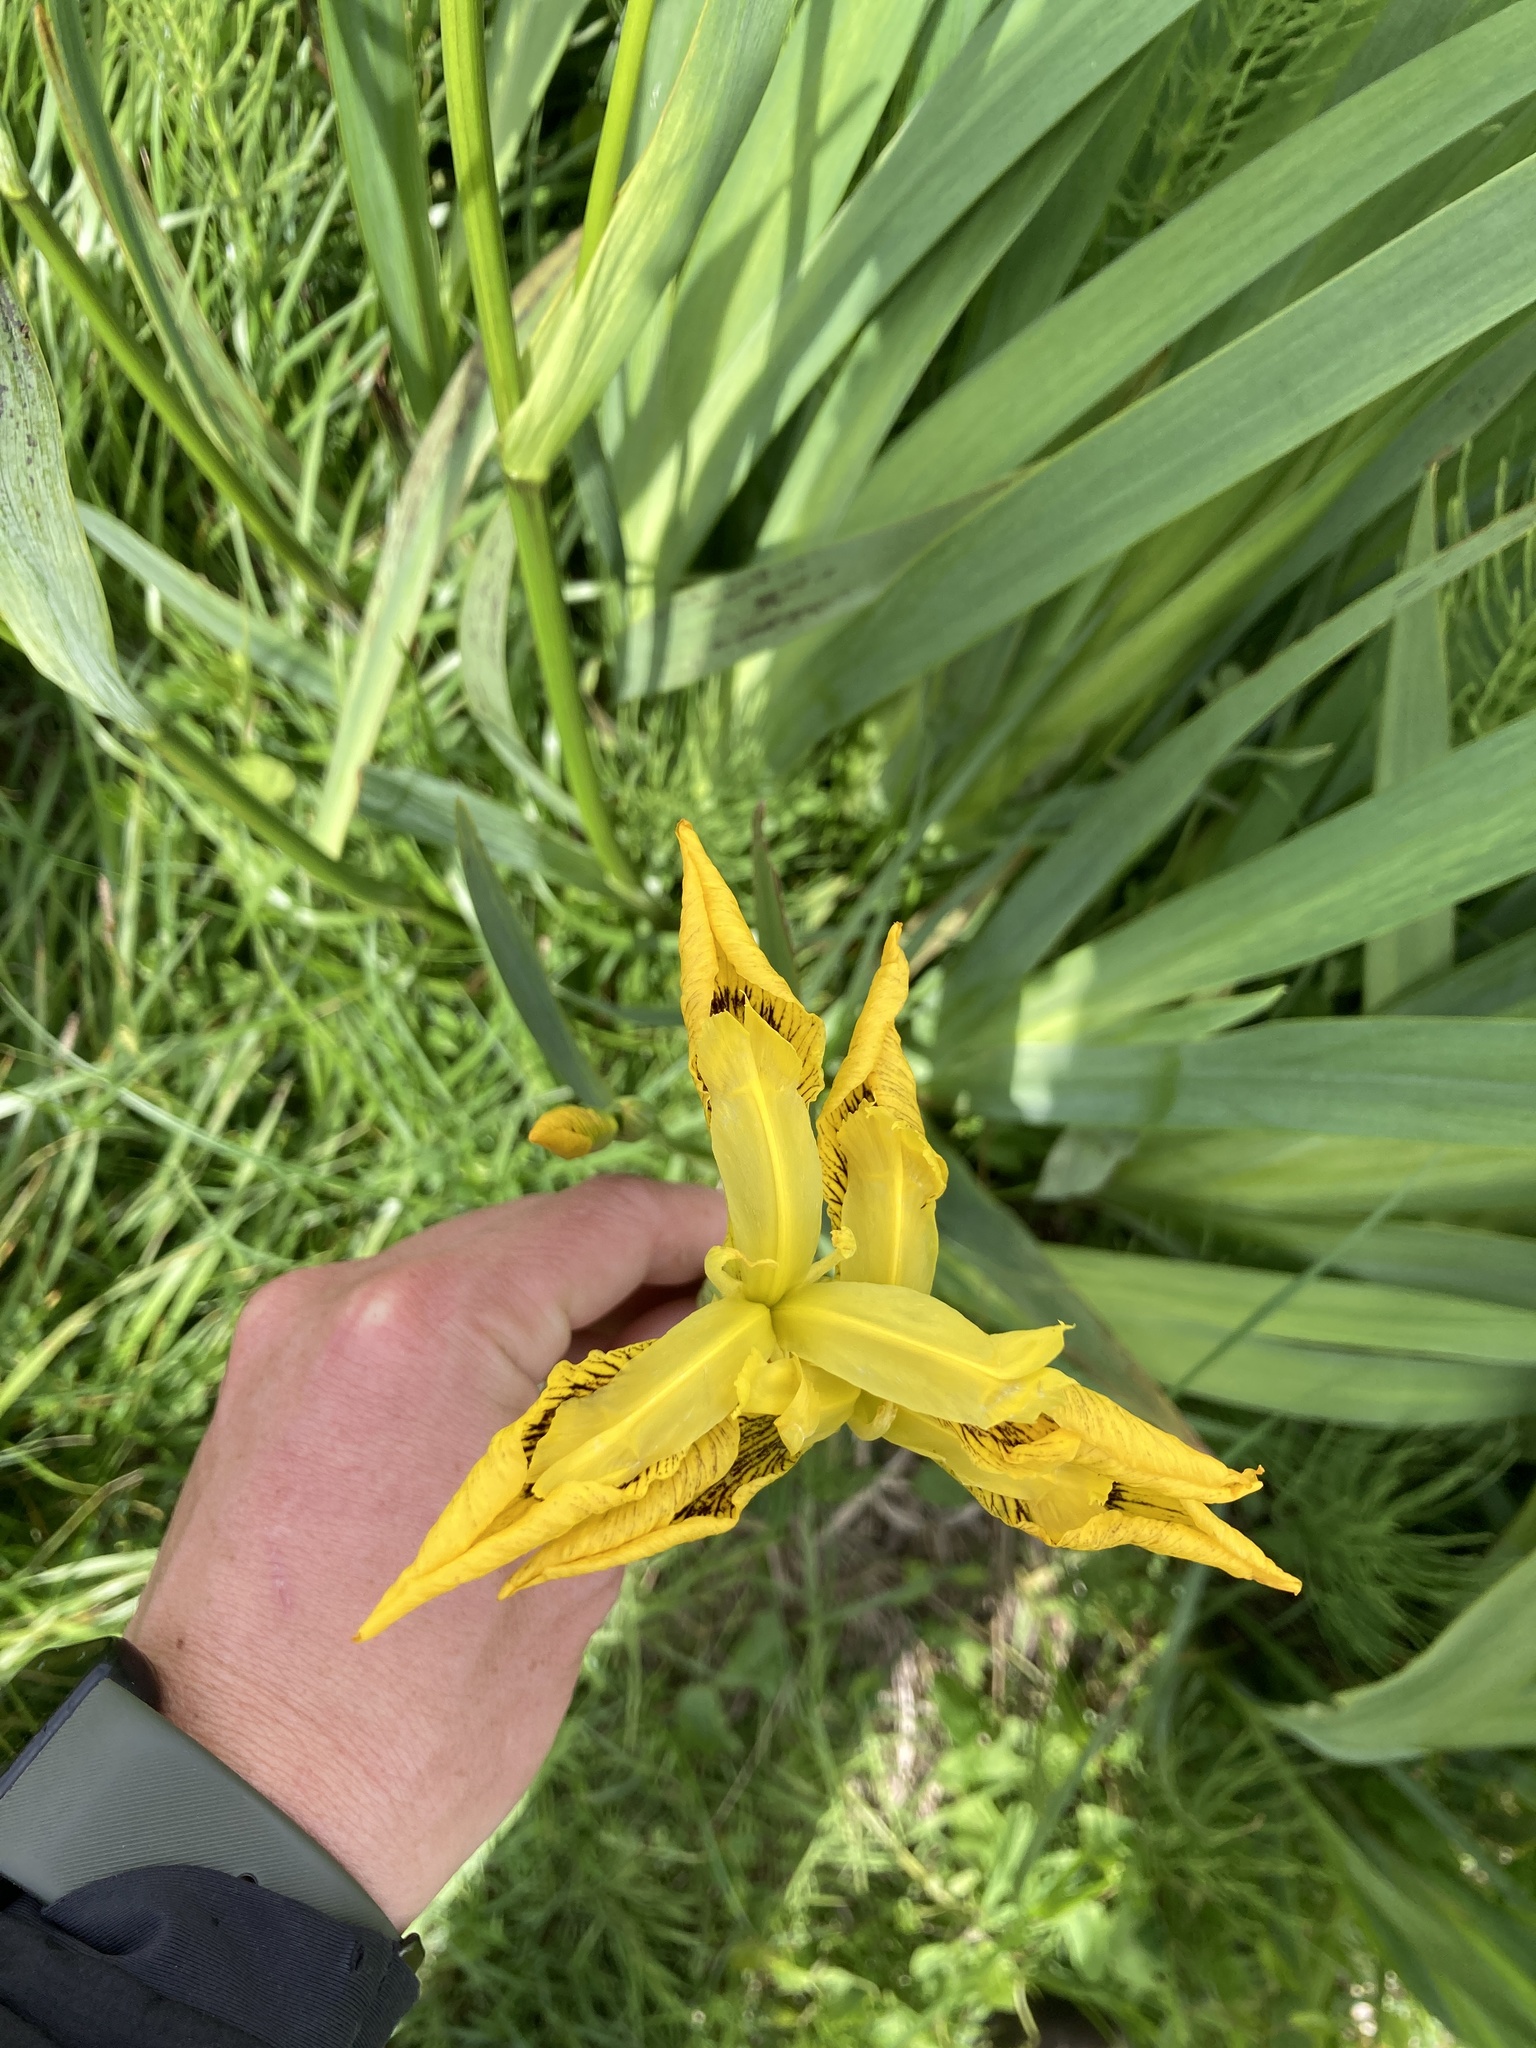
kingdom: Plantae
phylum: Tracheophyta
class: Liliopsida
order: Asparagales
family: Iridaceae
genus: Iris
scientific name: Iris pseudacorus
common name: Yellow flag
